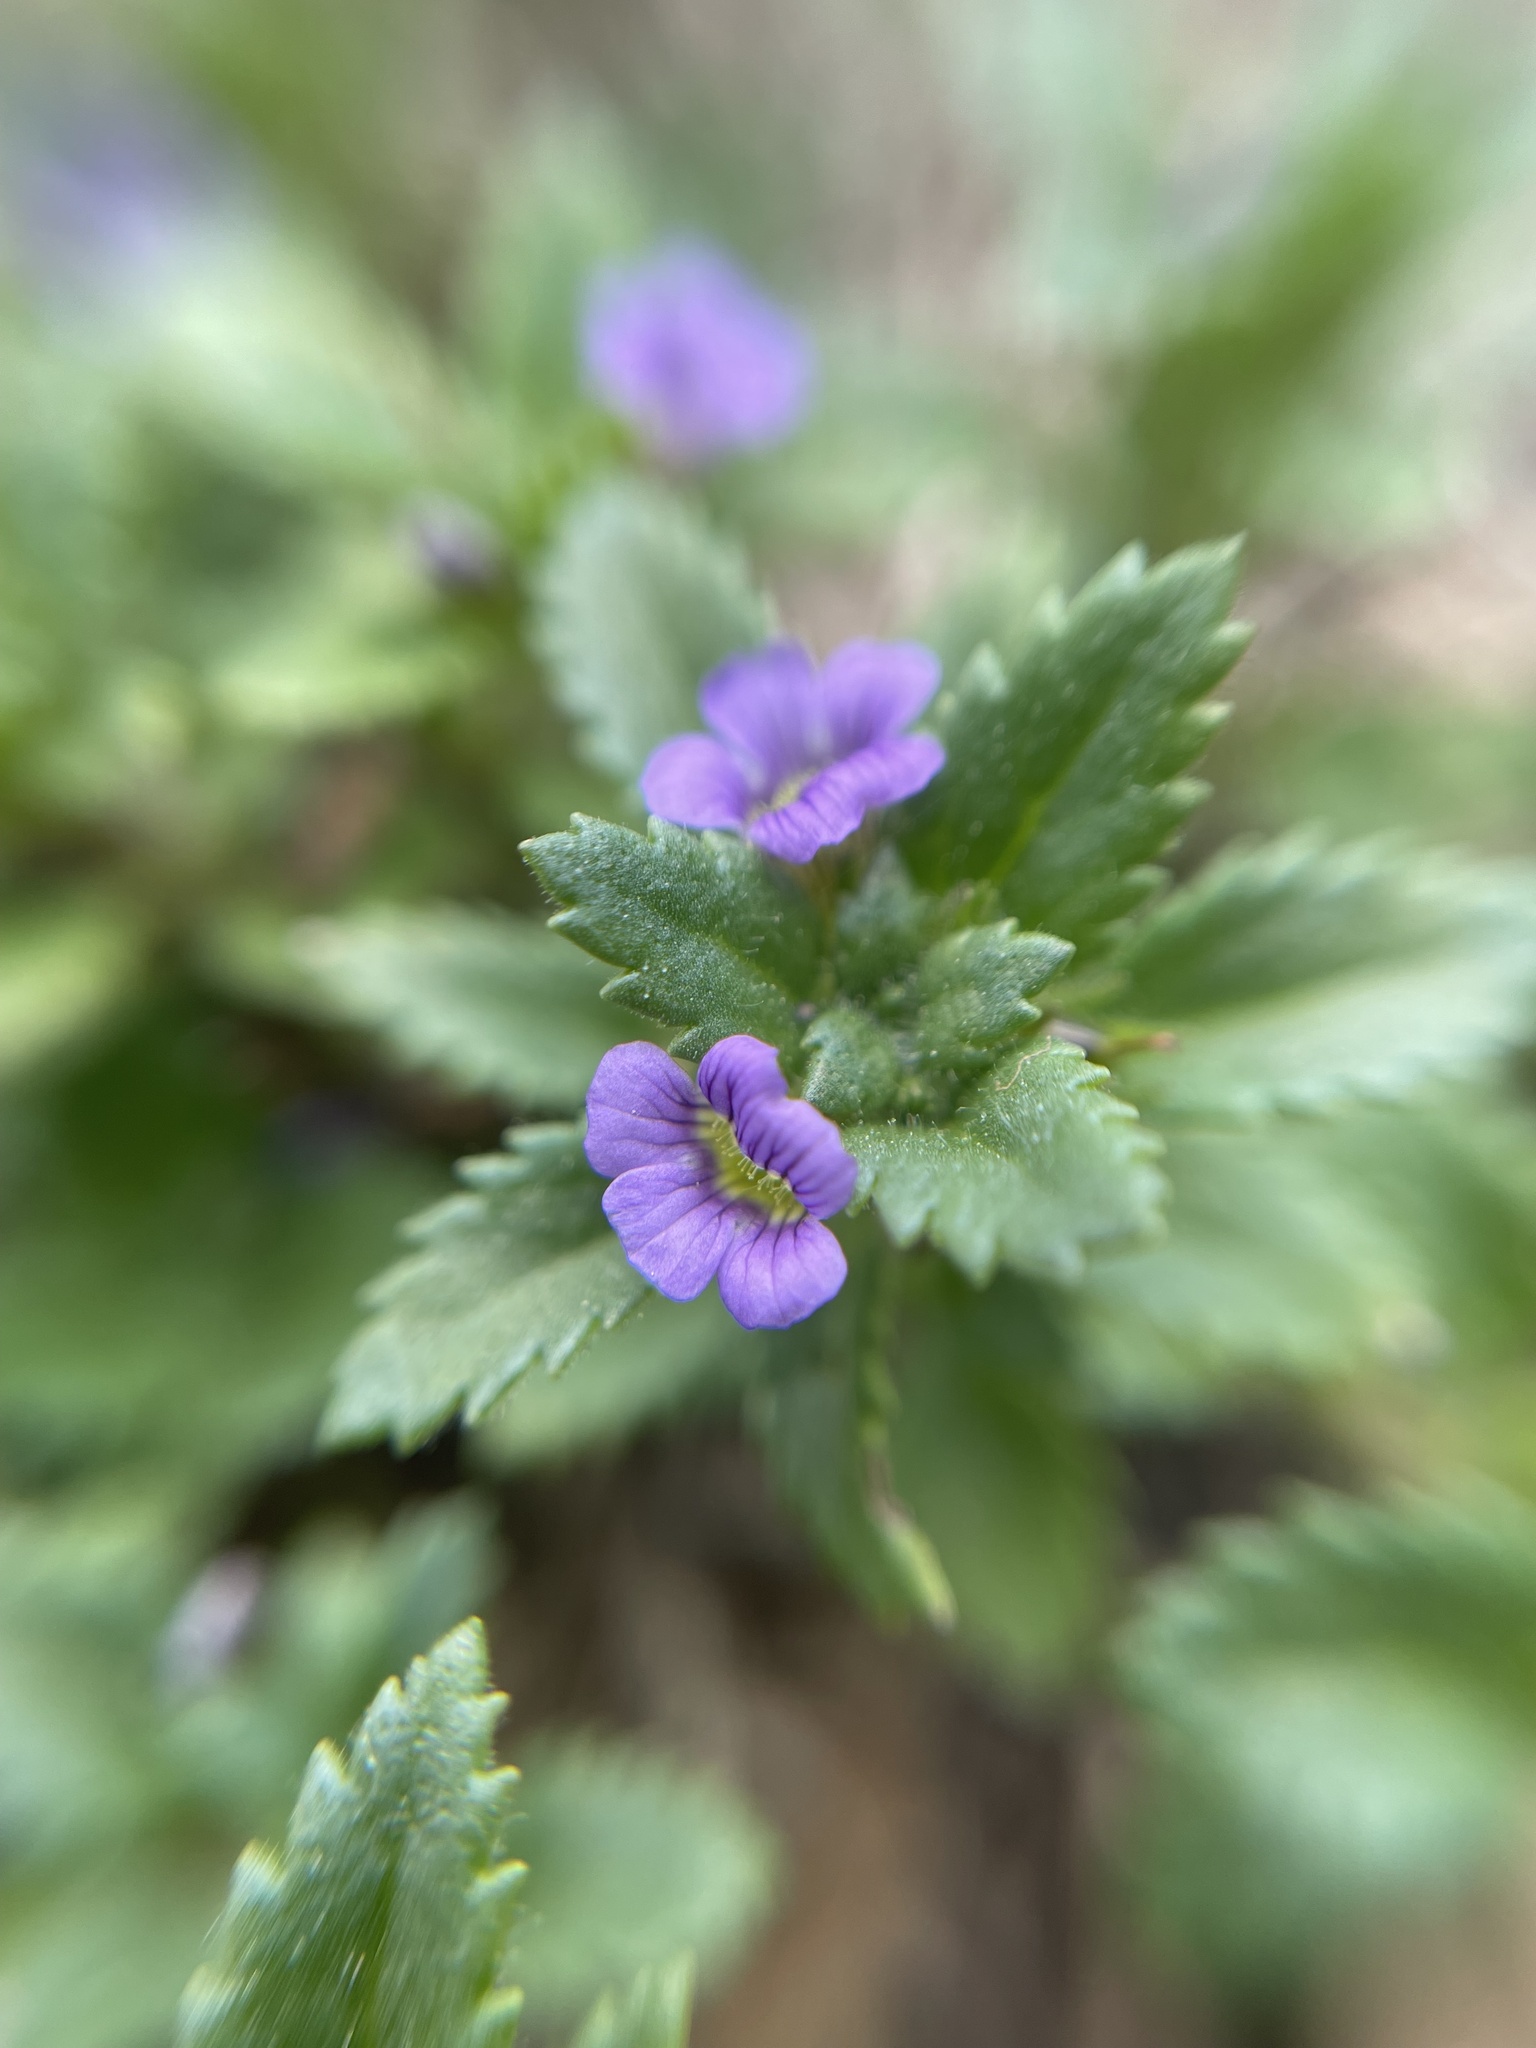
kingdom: Plantae
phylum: Tracheophyta
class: Magnoliopsida
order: Lamiales
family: Plantaginaceae
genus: Stemodia
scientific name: Stemodia verticillata
